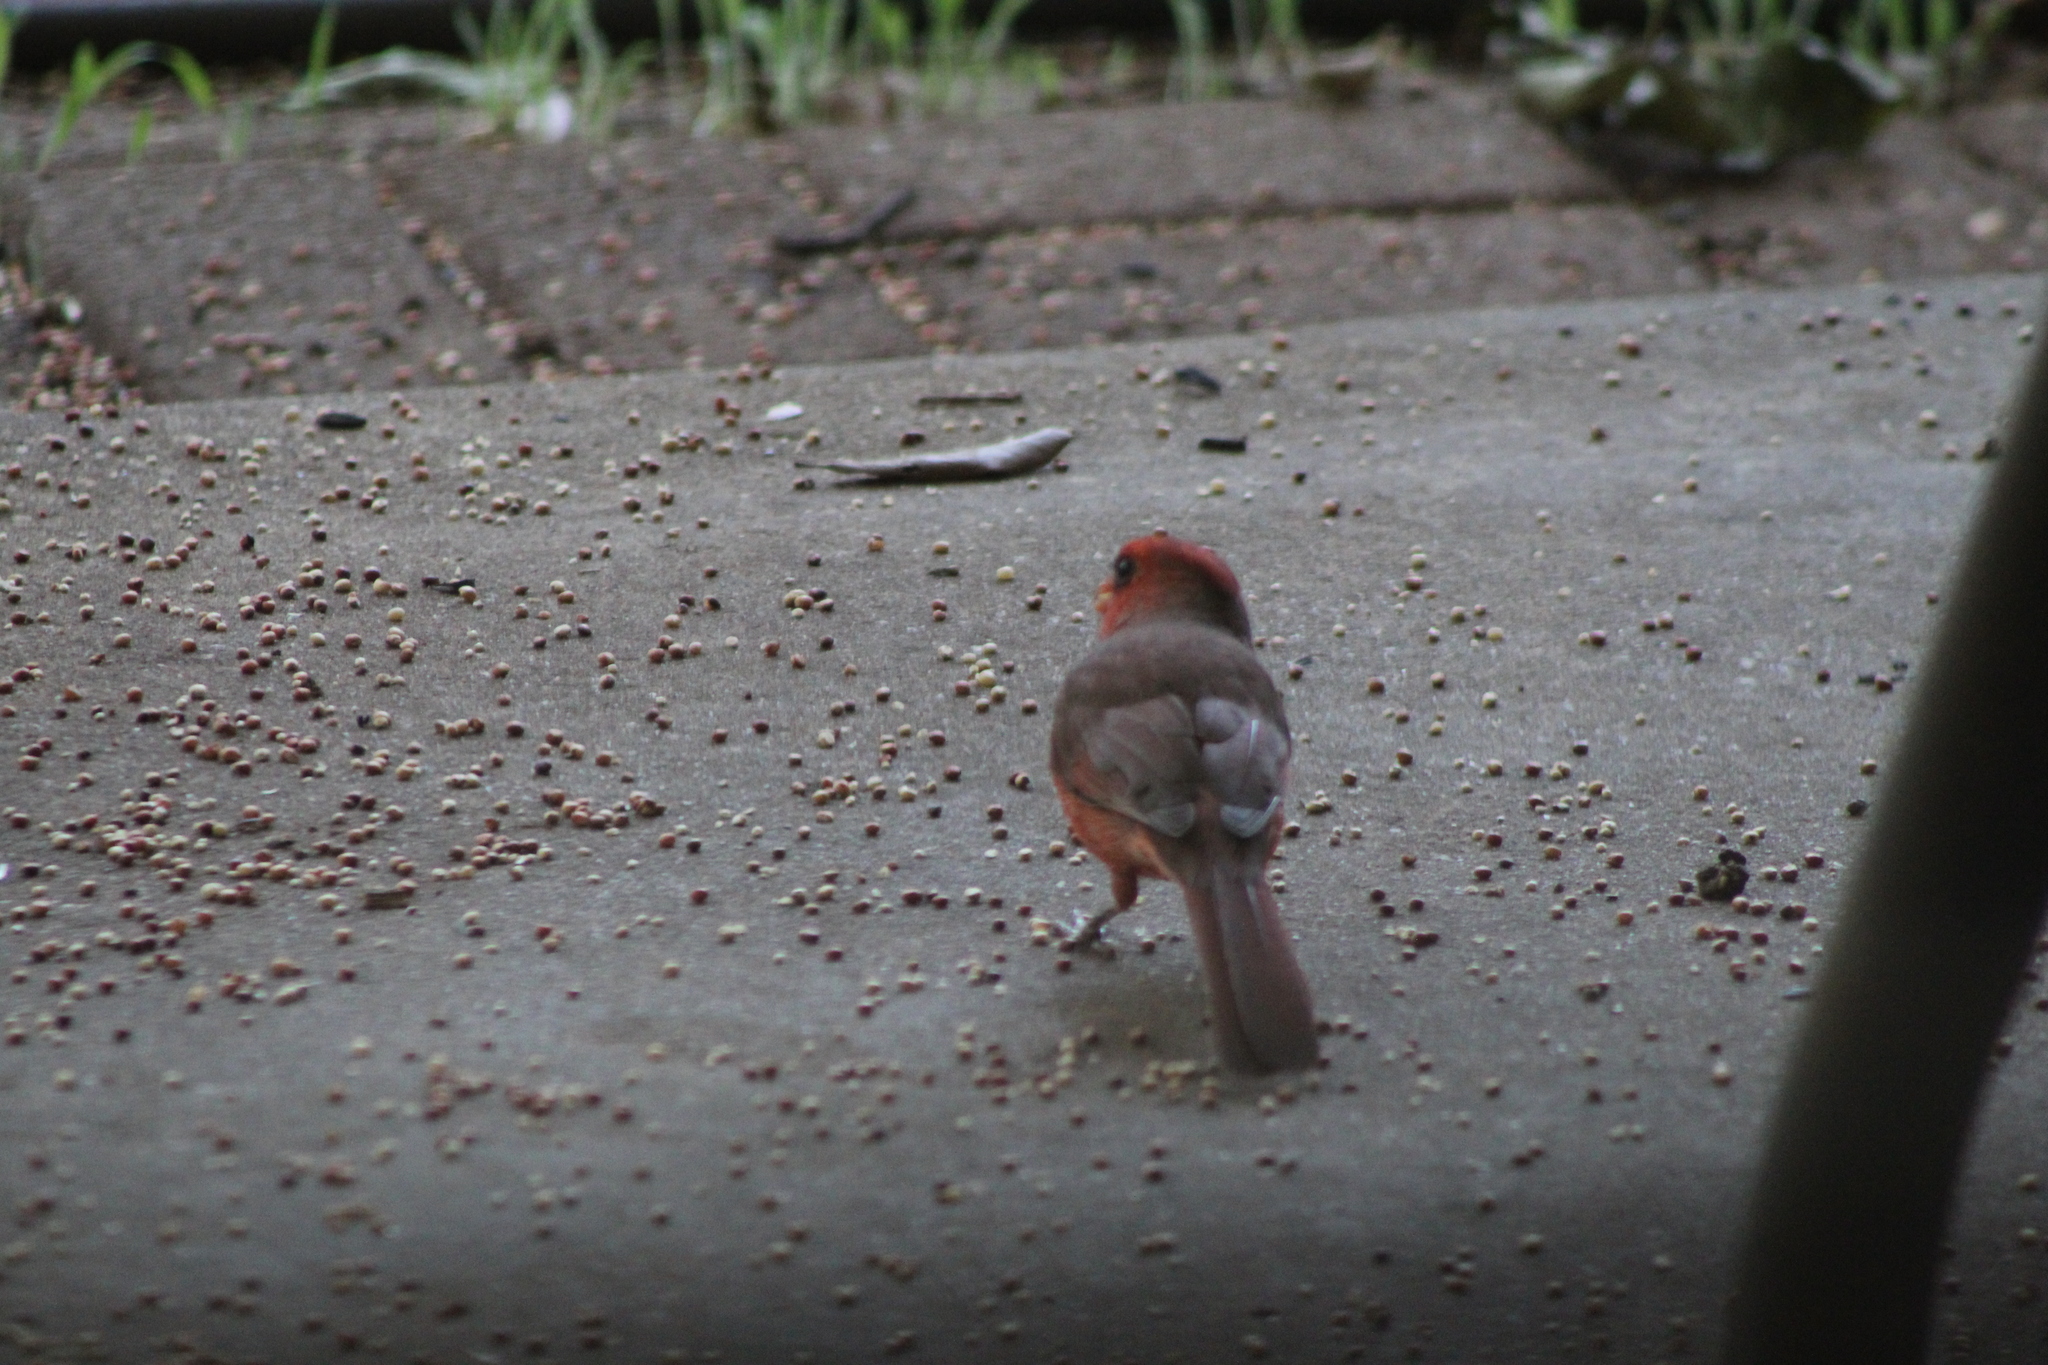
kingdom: Animalia
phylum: Chordata
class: Aves
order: Passeriformes
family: Cardinalidae
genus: Cardinalis
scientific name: Cardinalis cardinalis
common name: Northern cardinal
